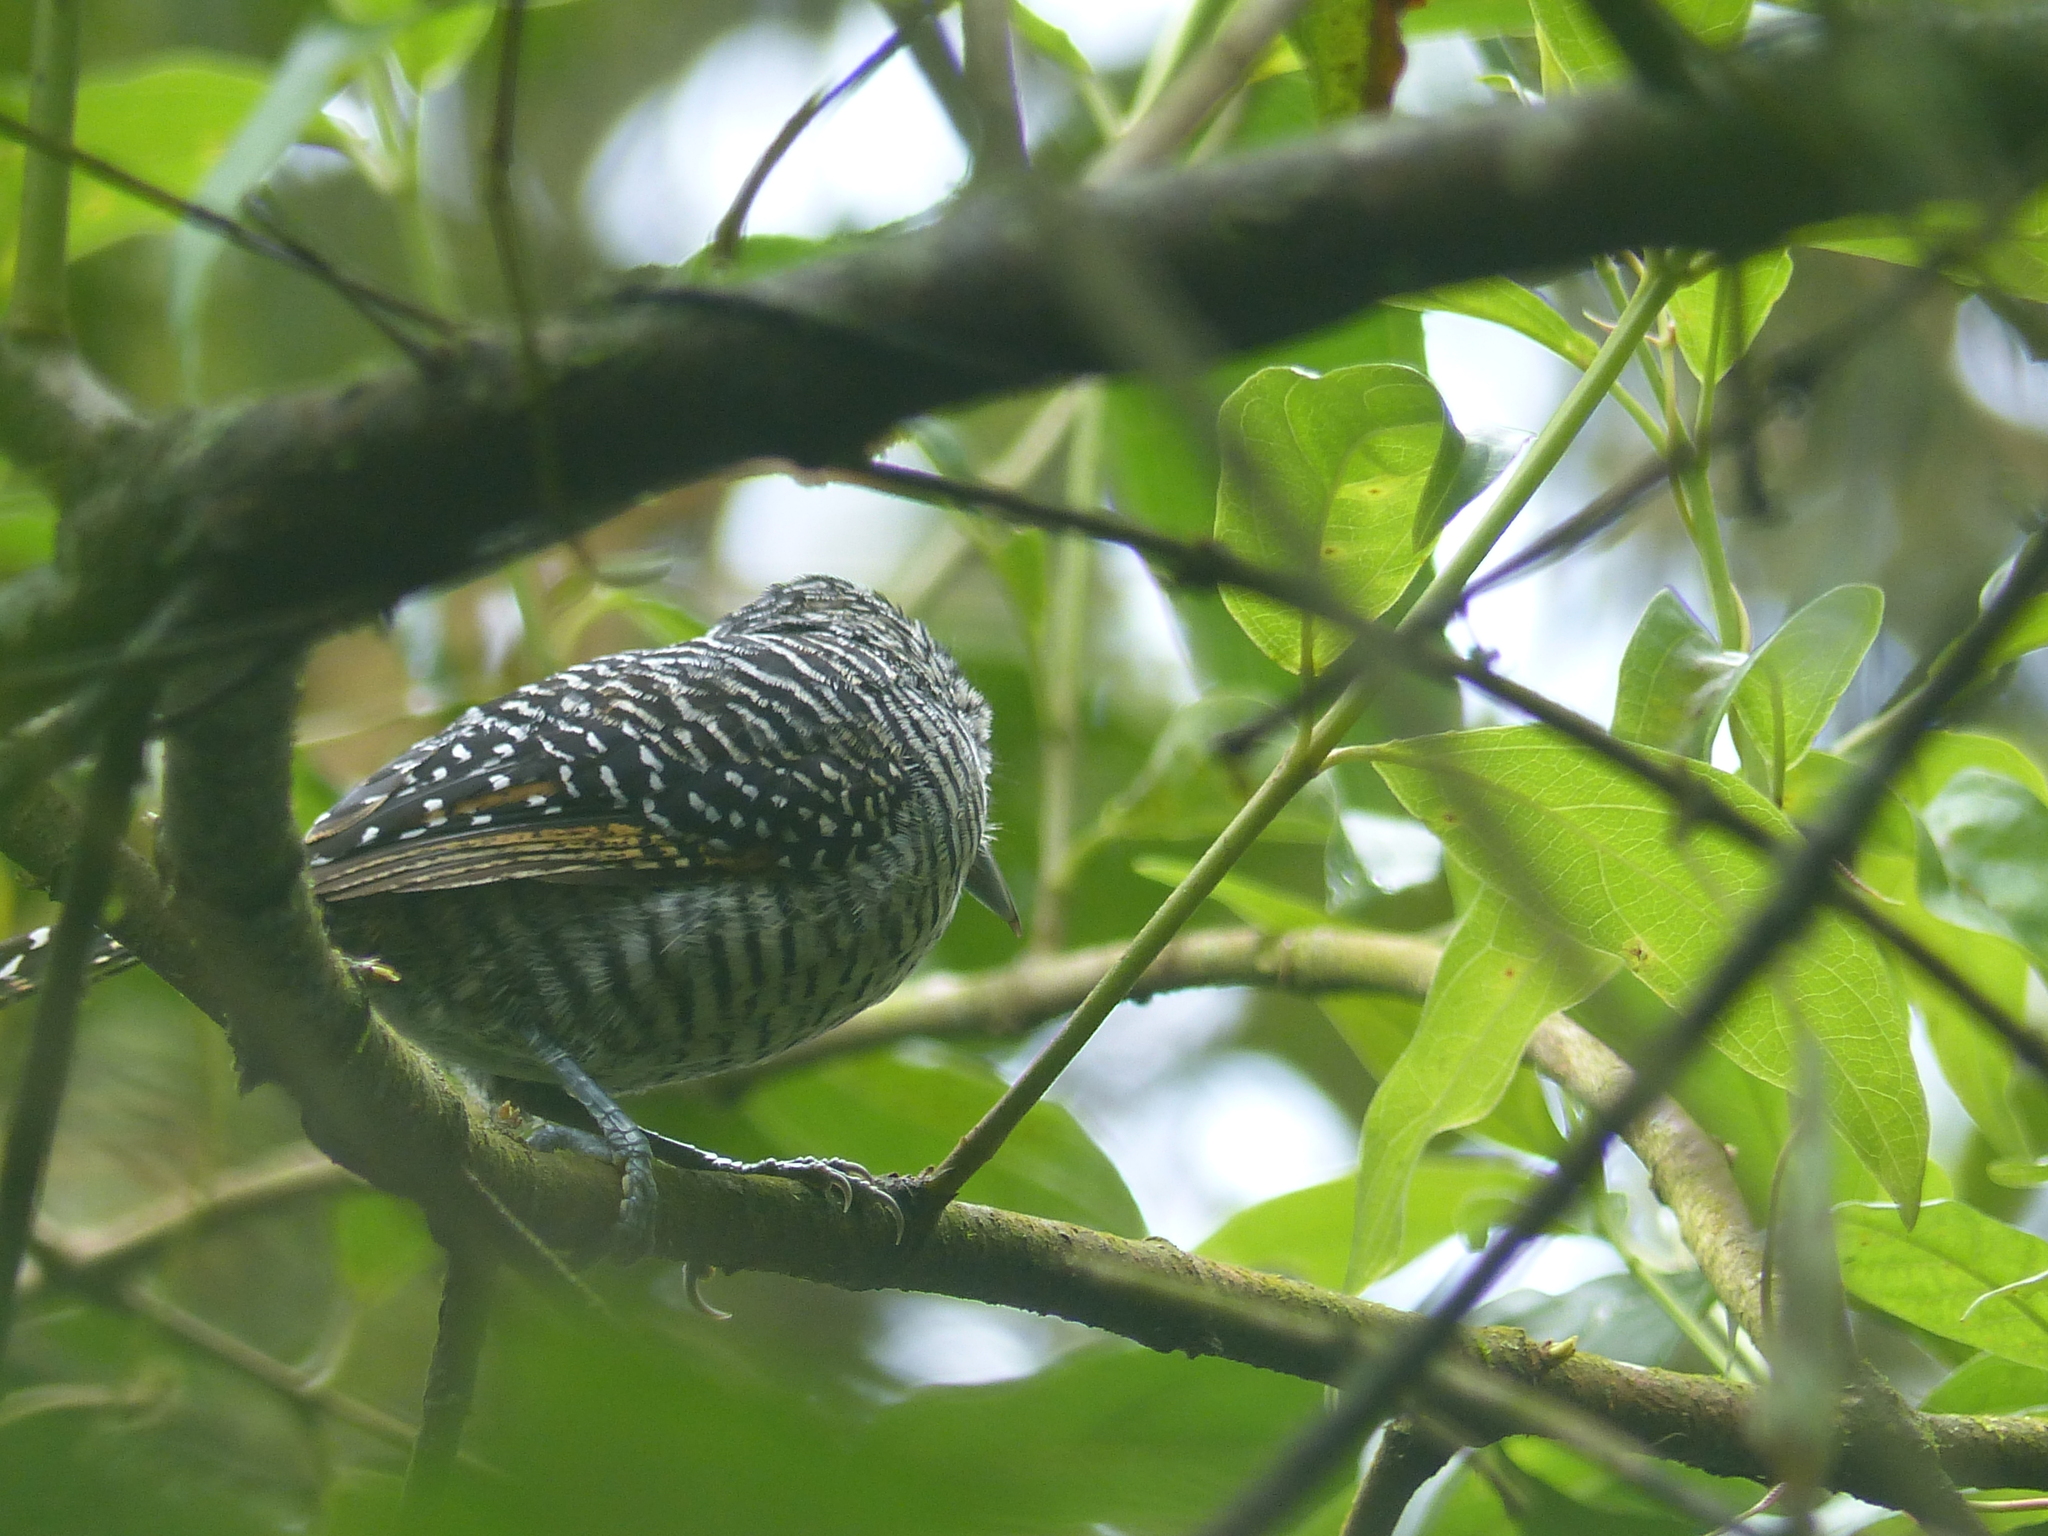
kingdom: Animalia
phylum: Chordata
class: Aves
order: Passeriformes
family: Thamnophilidae
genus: Thamnophilus
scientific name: Thamnophilus multistriatus
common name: Bar-crested antshrike
